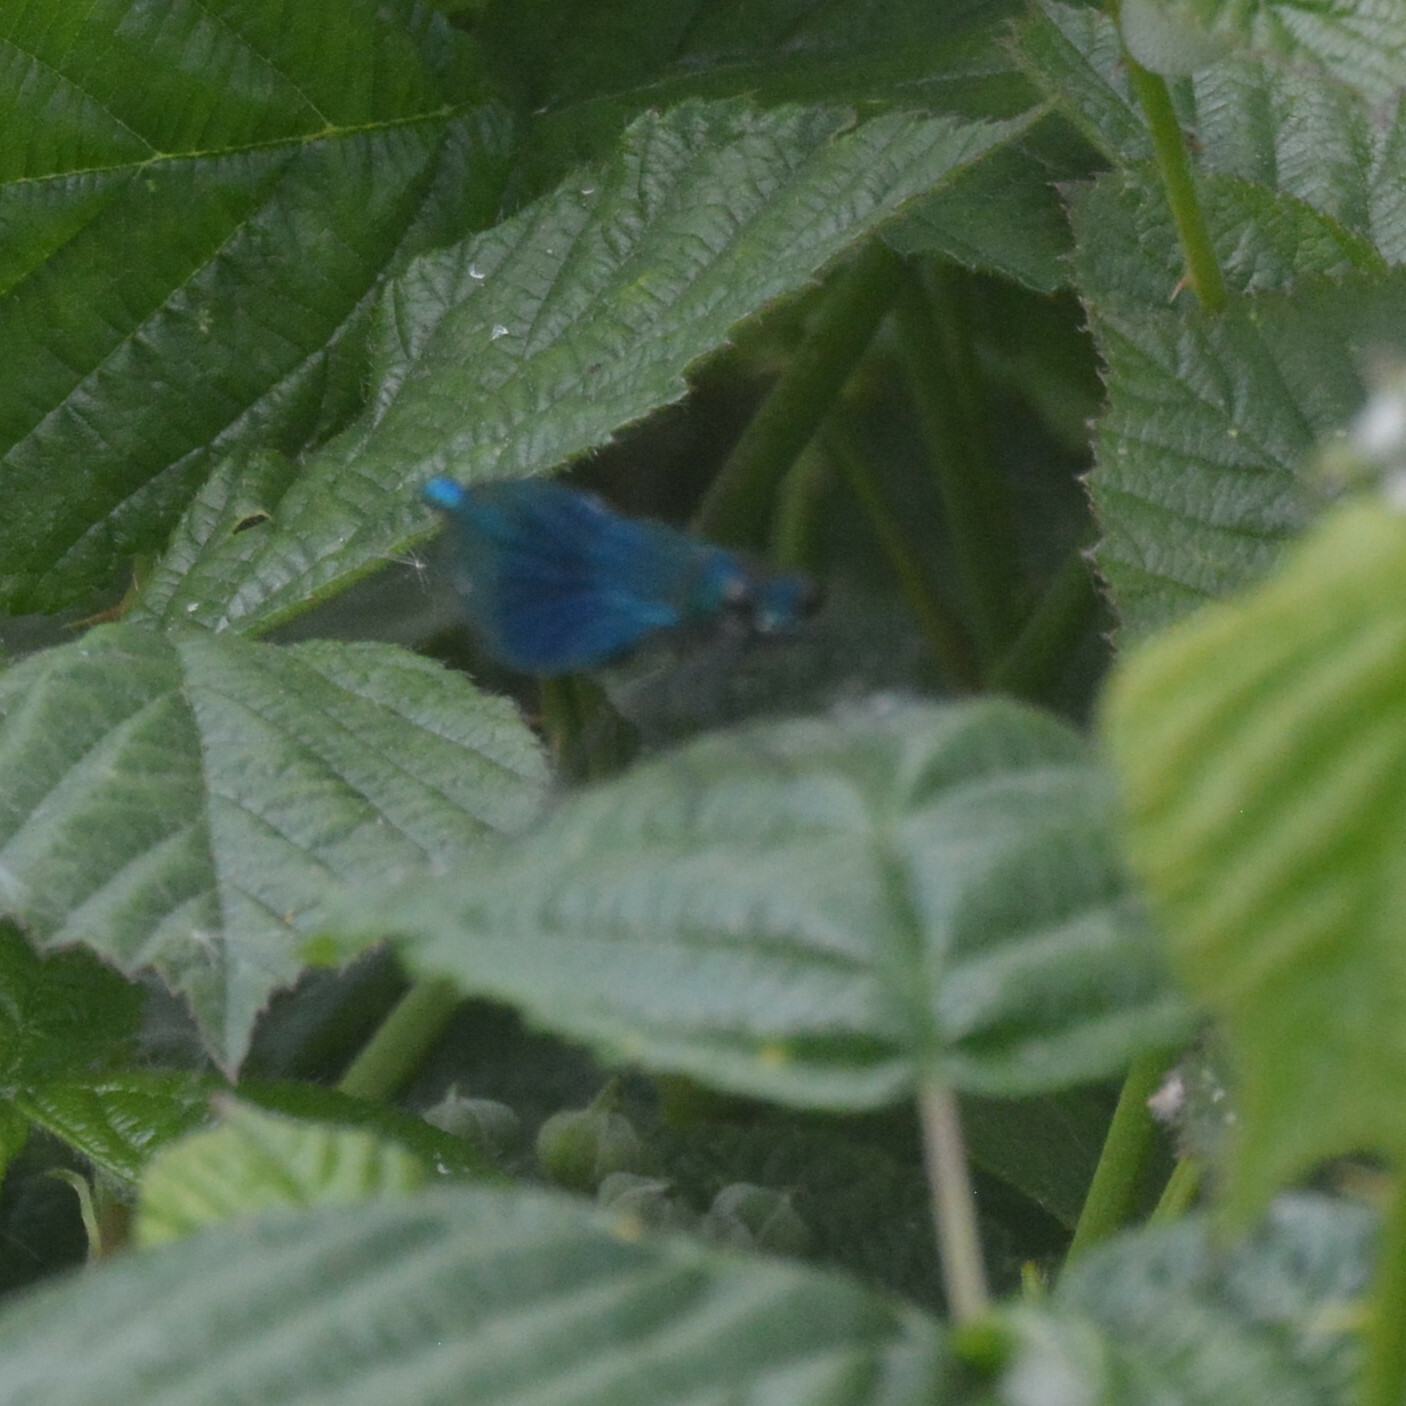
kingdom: Animalia
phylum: Arthropoda
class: Insecta
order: Odonata
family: Calopterygidae
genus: Calopteryx
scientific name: Calopteryx splendens
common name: Banded demoiselle
